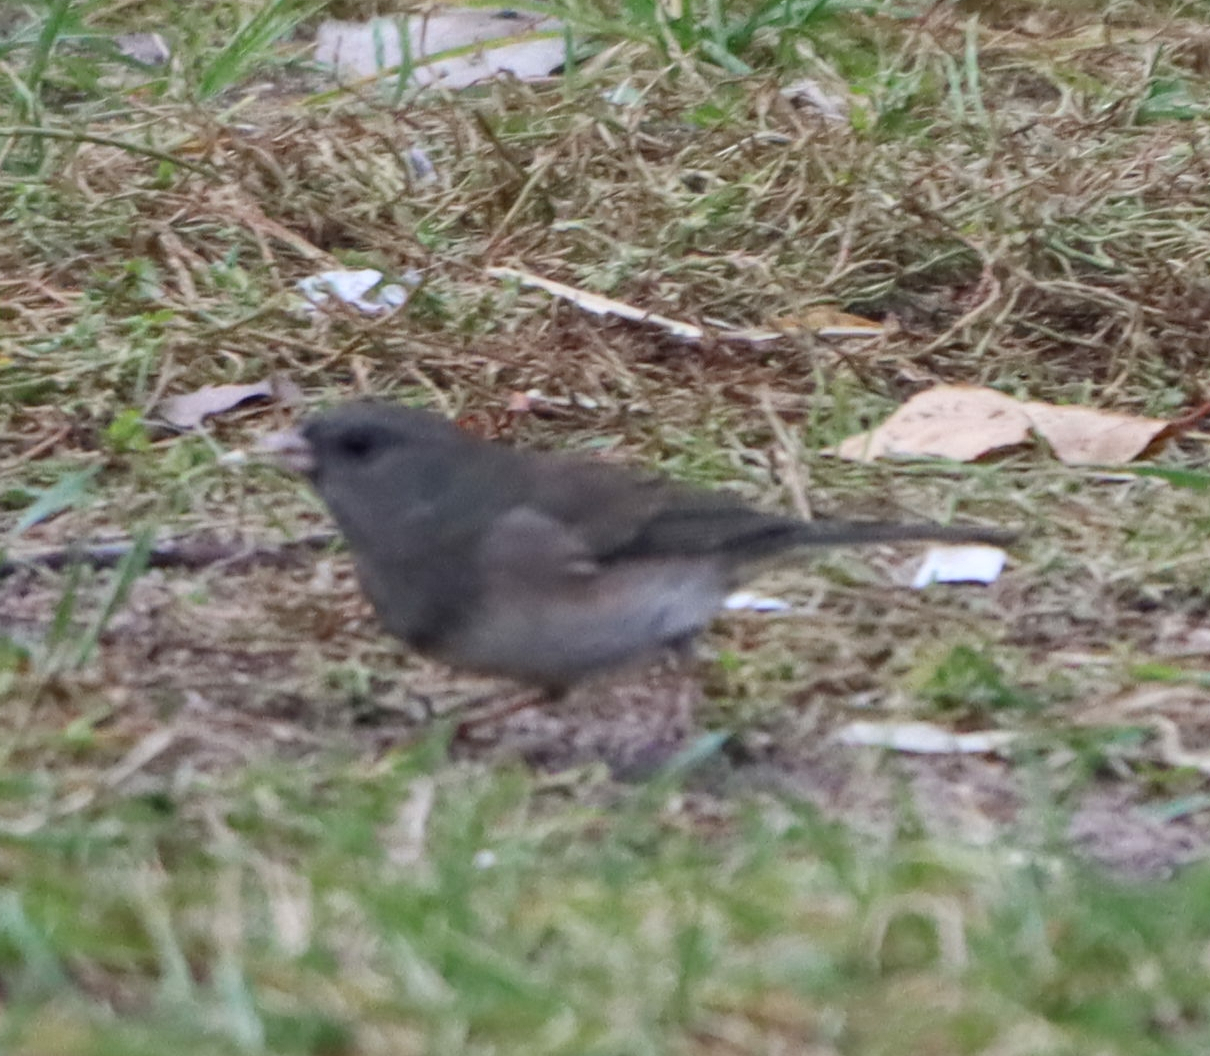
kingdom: Animalia
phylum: Chordata
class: Aves
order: Passeriformes
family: Passerellidae
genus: Junco
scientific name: Junco hyemalis
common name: Dark-eyed junco
